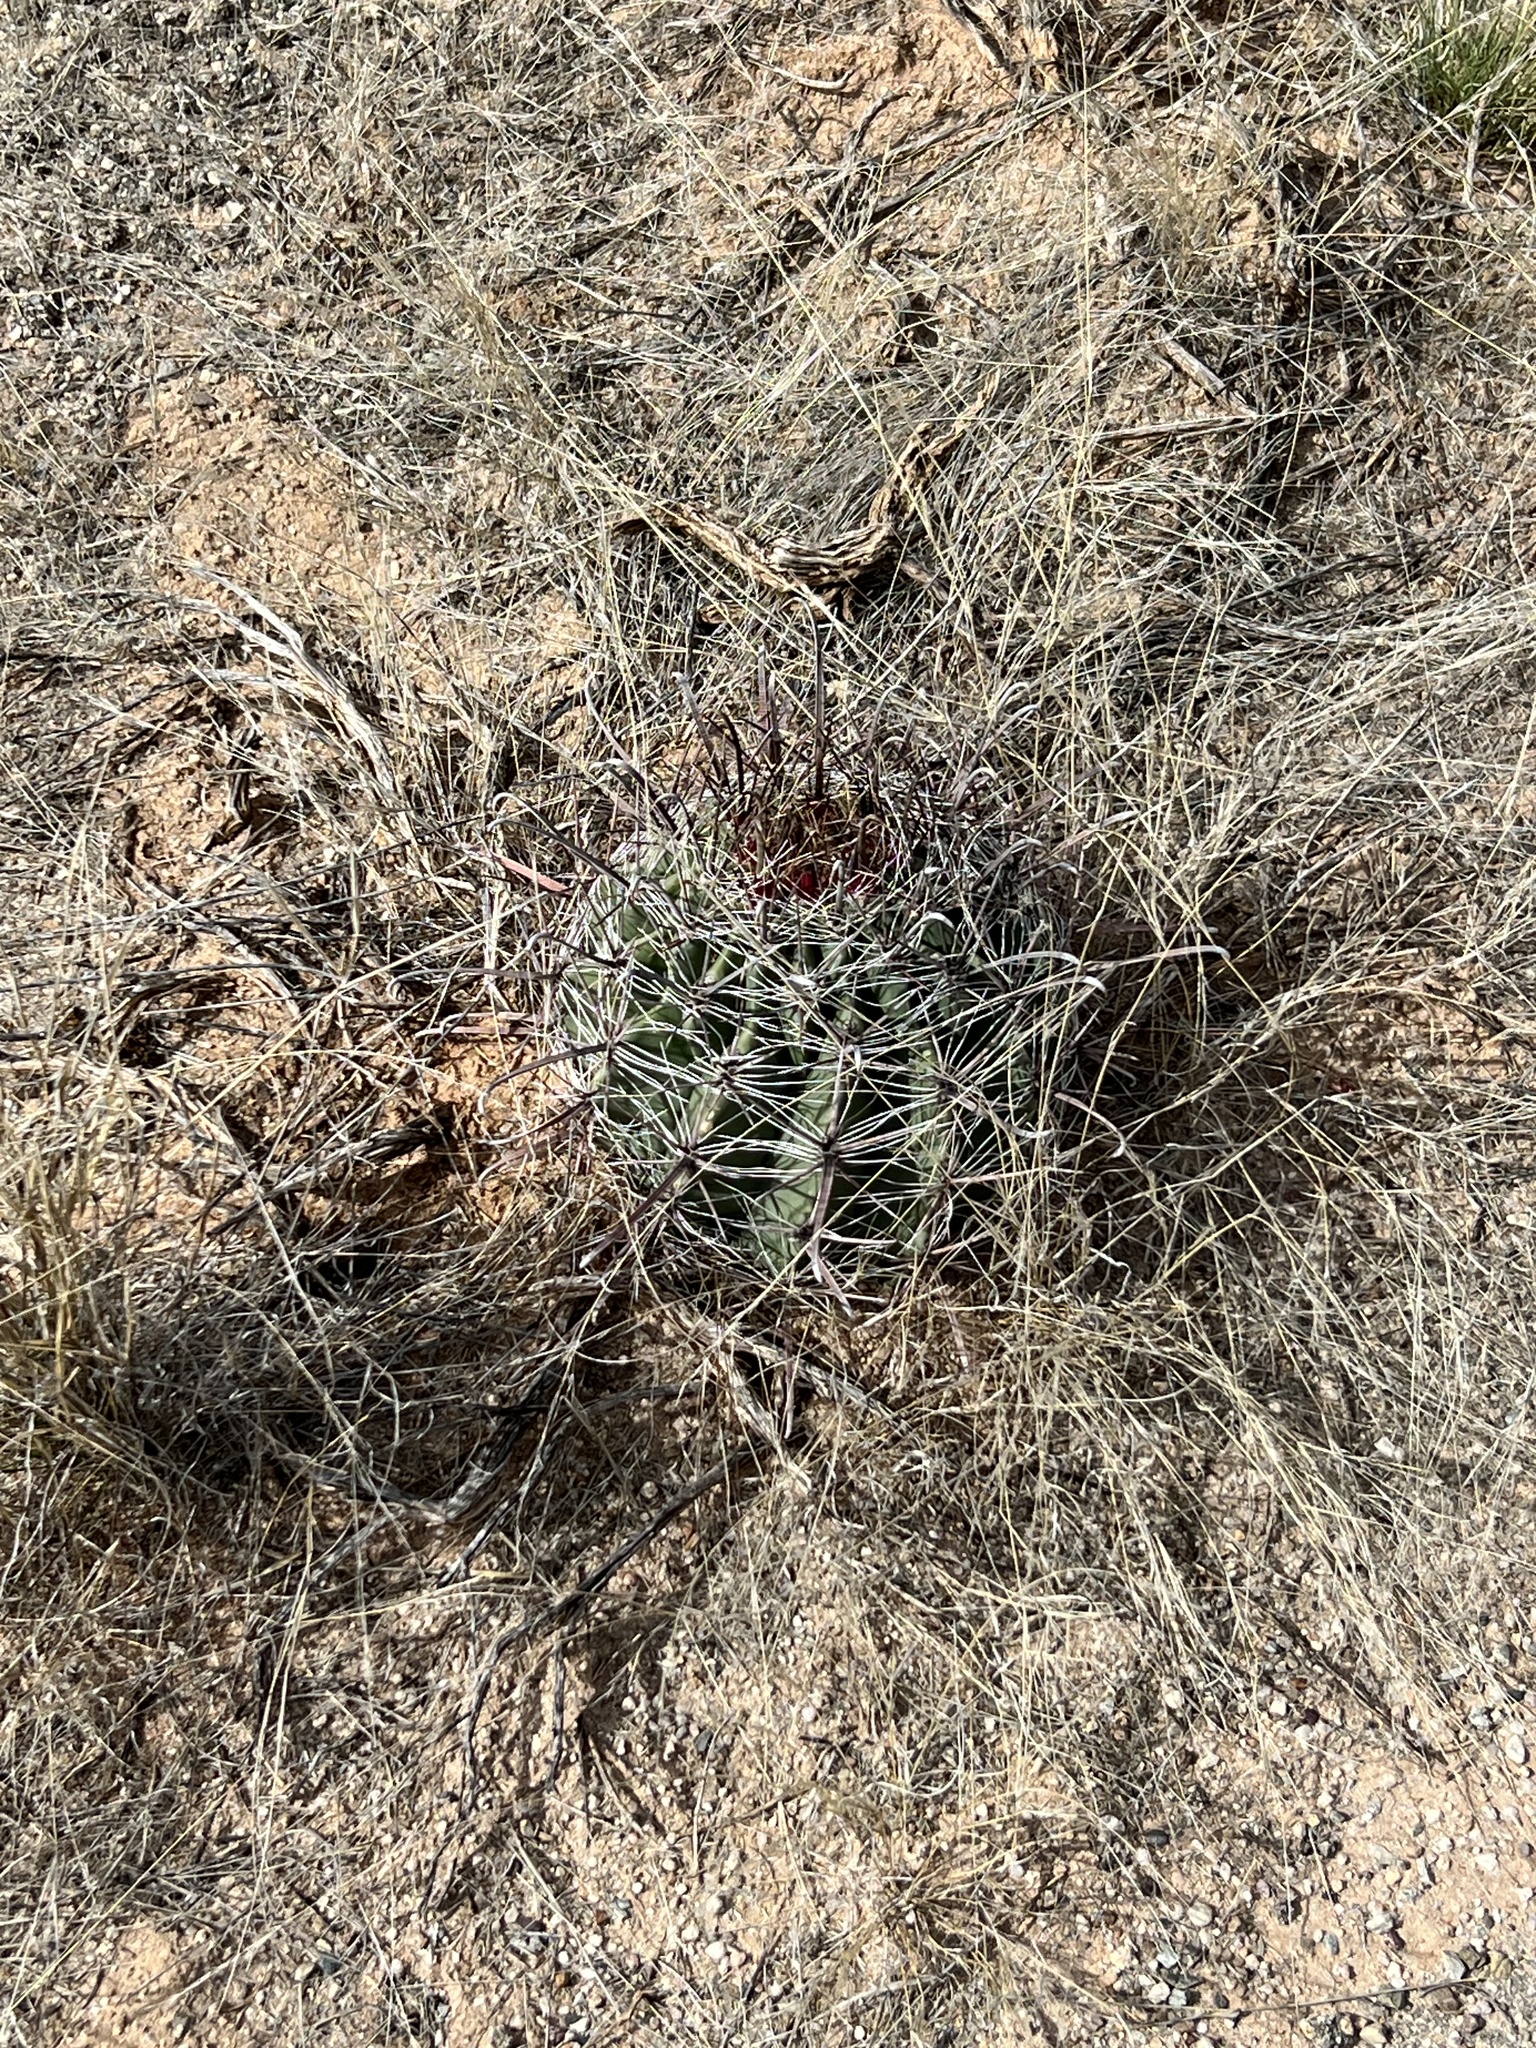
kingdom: Plantae
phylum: Tracheophyta
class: Magnoliopsida
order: Caryophyllales
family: Cactaceae
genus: Ferocactus
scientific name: Ferocactus wislizeni
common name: Candy barrel cactus
